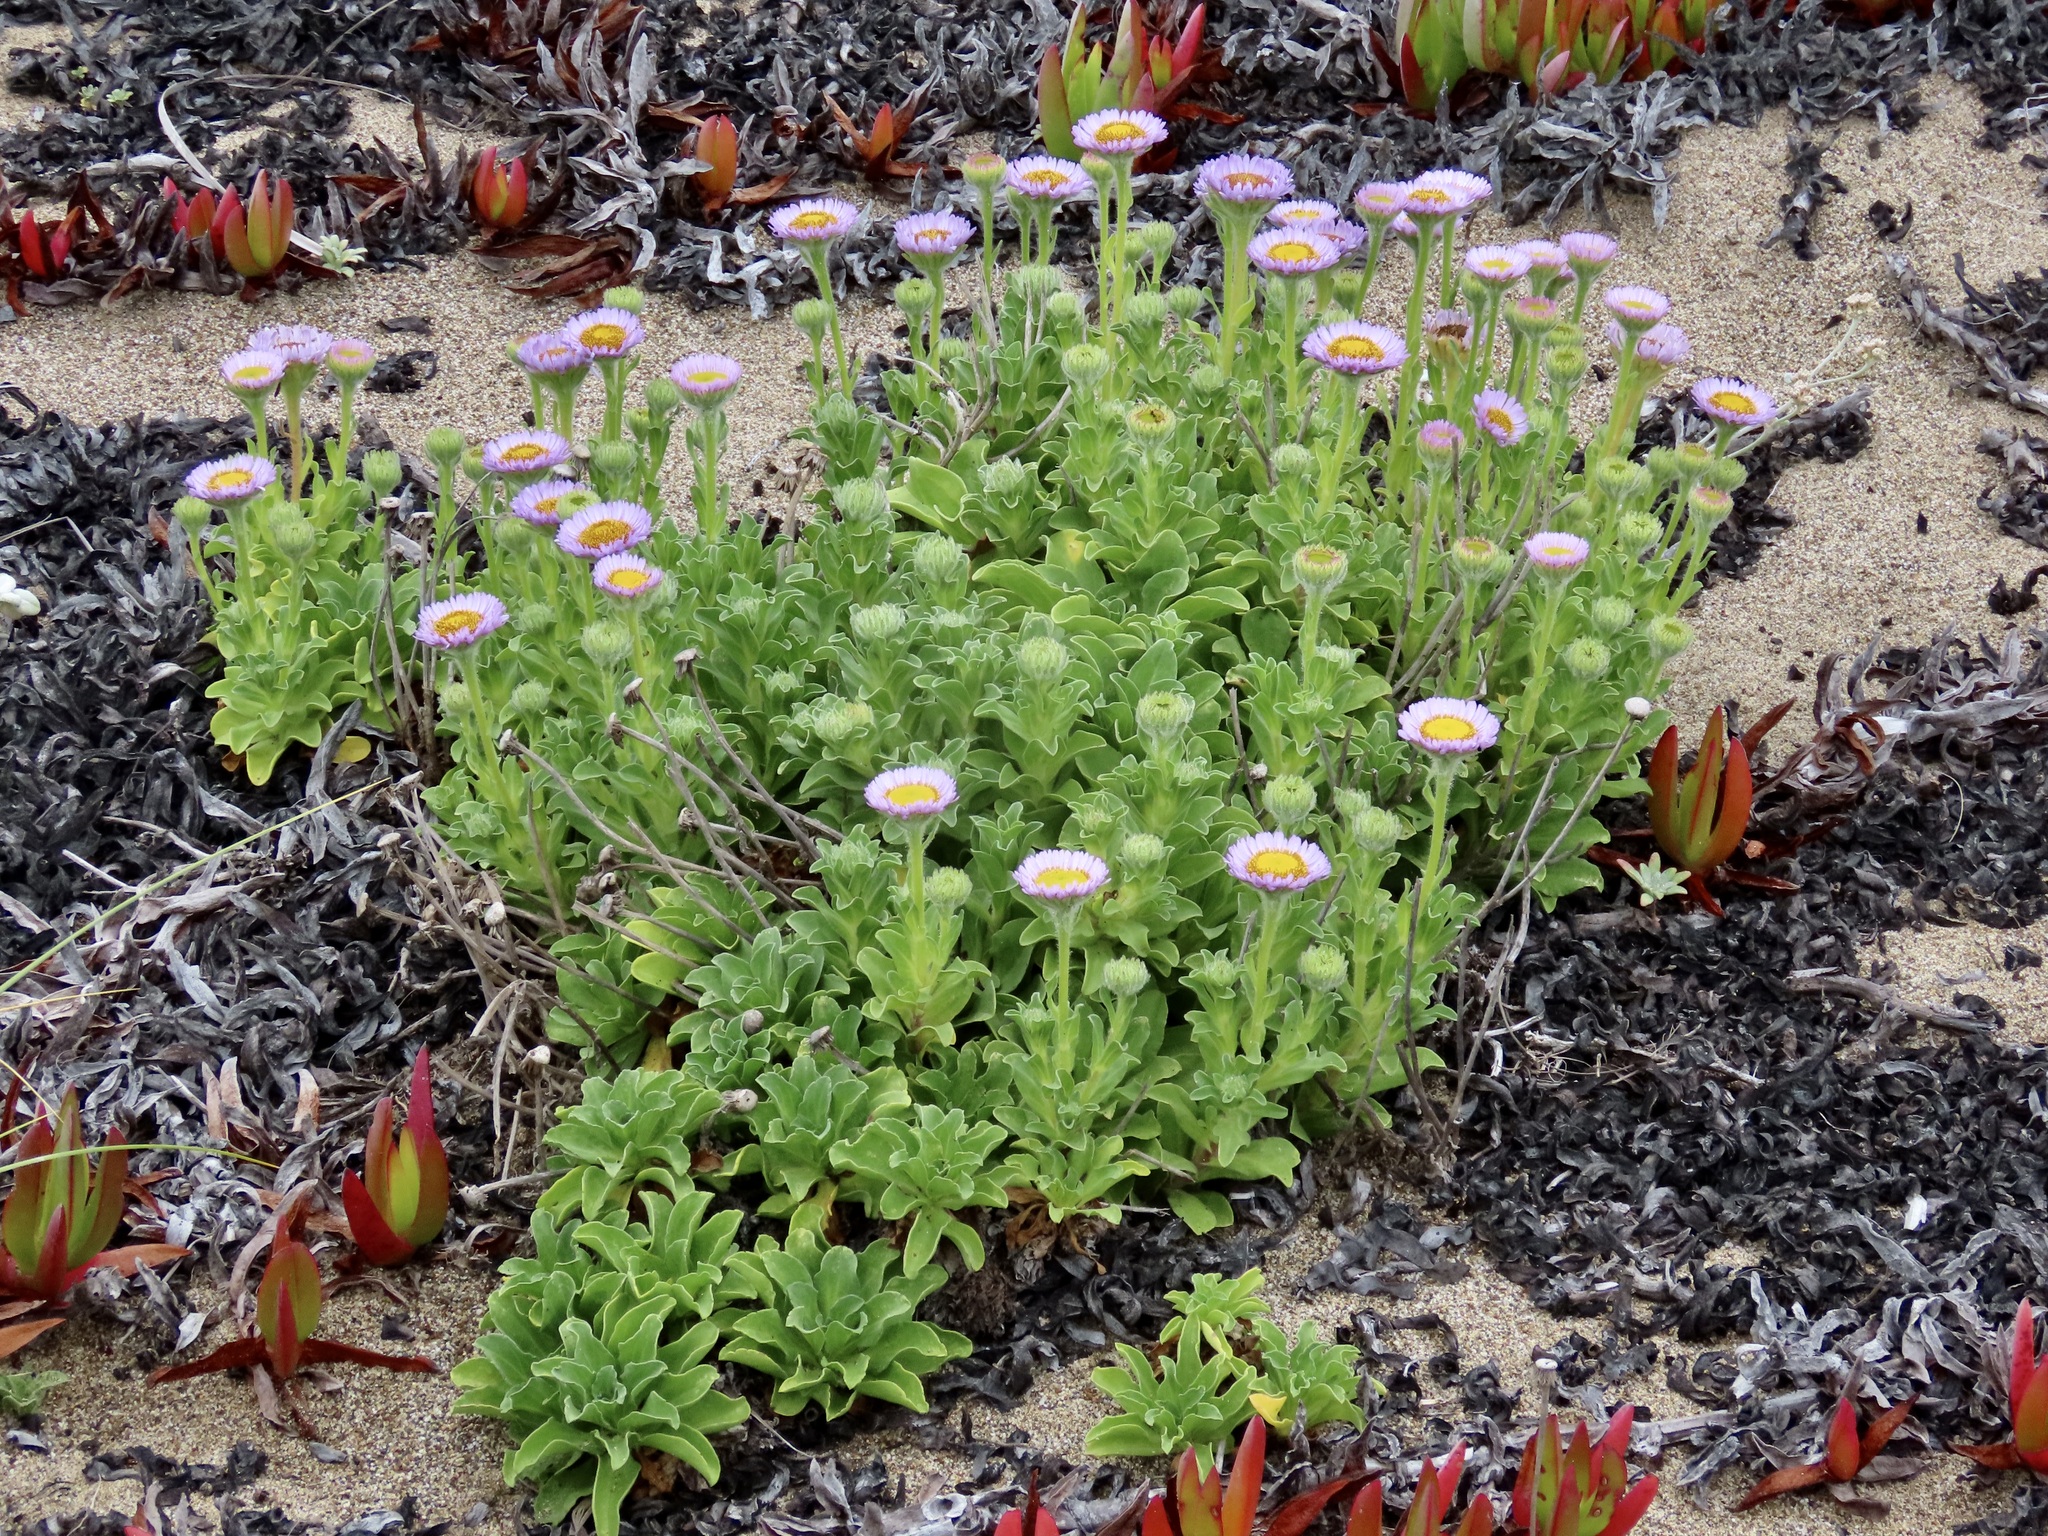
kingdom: Plantae
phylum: Tracheophyta
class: Magnoliopsida
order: Asterales
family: Asteraceae
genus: Erigeron
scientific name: Erigeron glaucus
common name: Seaside daisy
